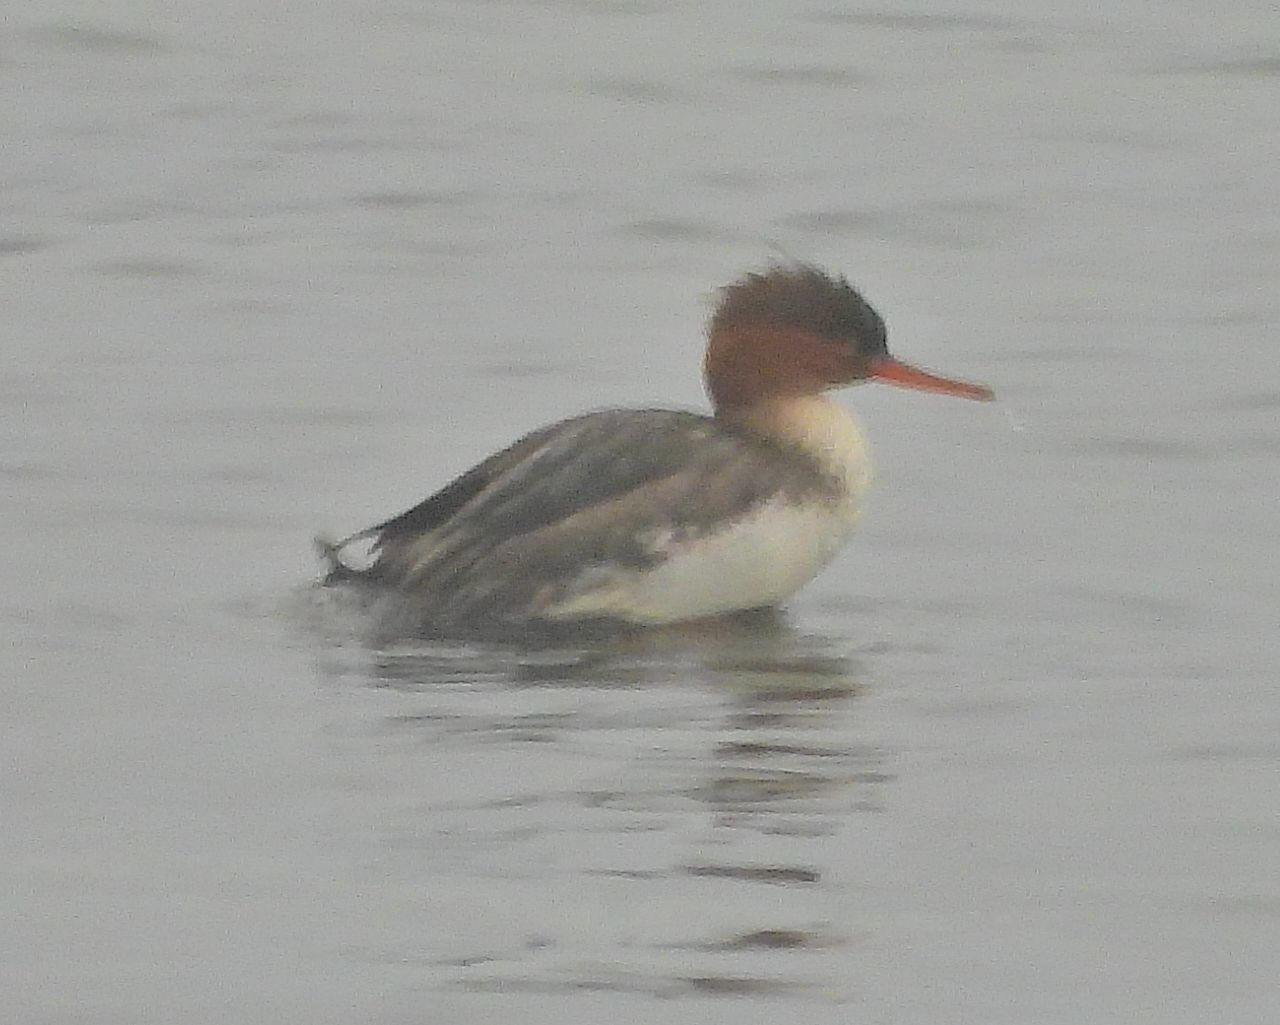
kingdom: Animalia
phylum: Chordata
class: Aves
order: Anseriformes
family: Anatidae
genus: Mergus
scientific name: Mergus serrator
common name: Red-breasted merganser
